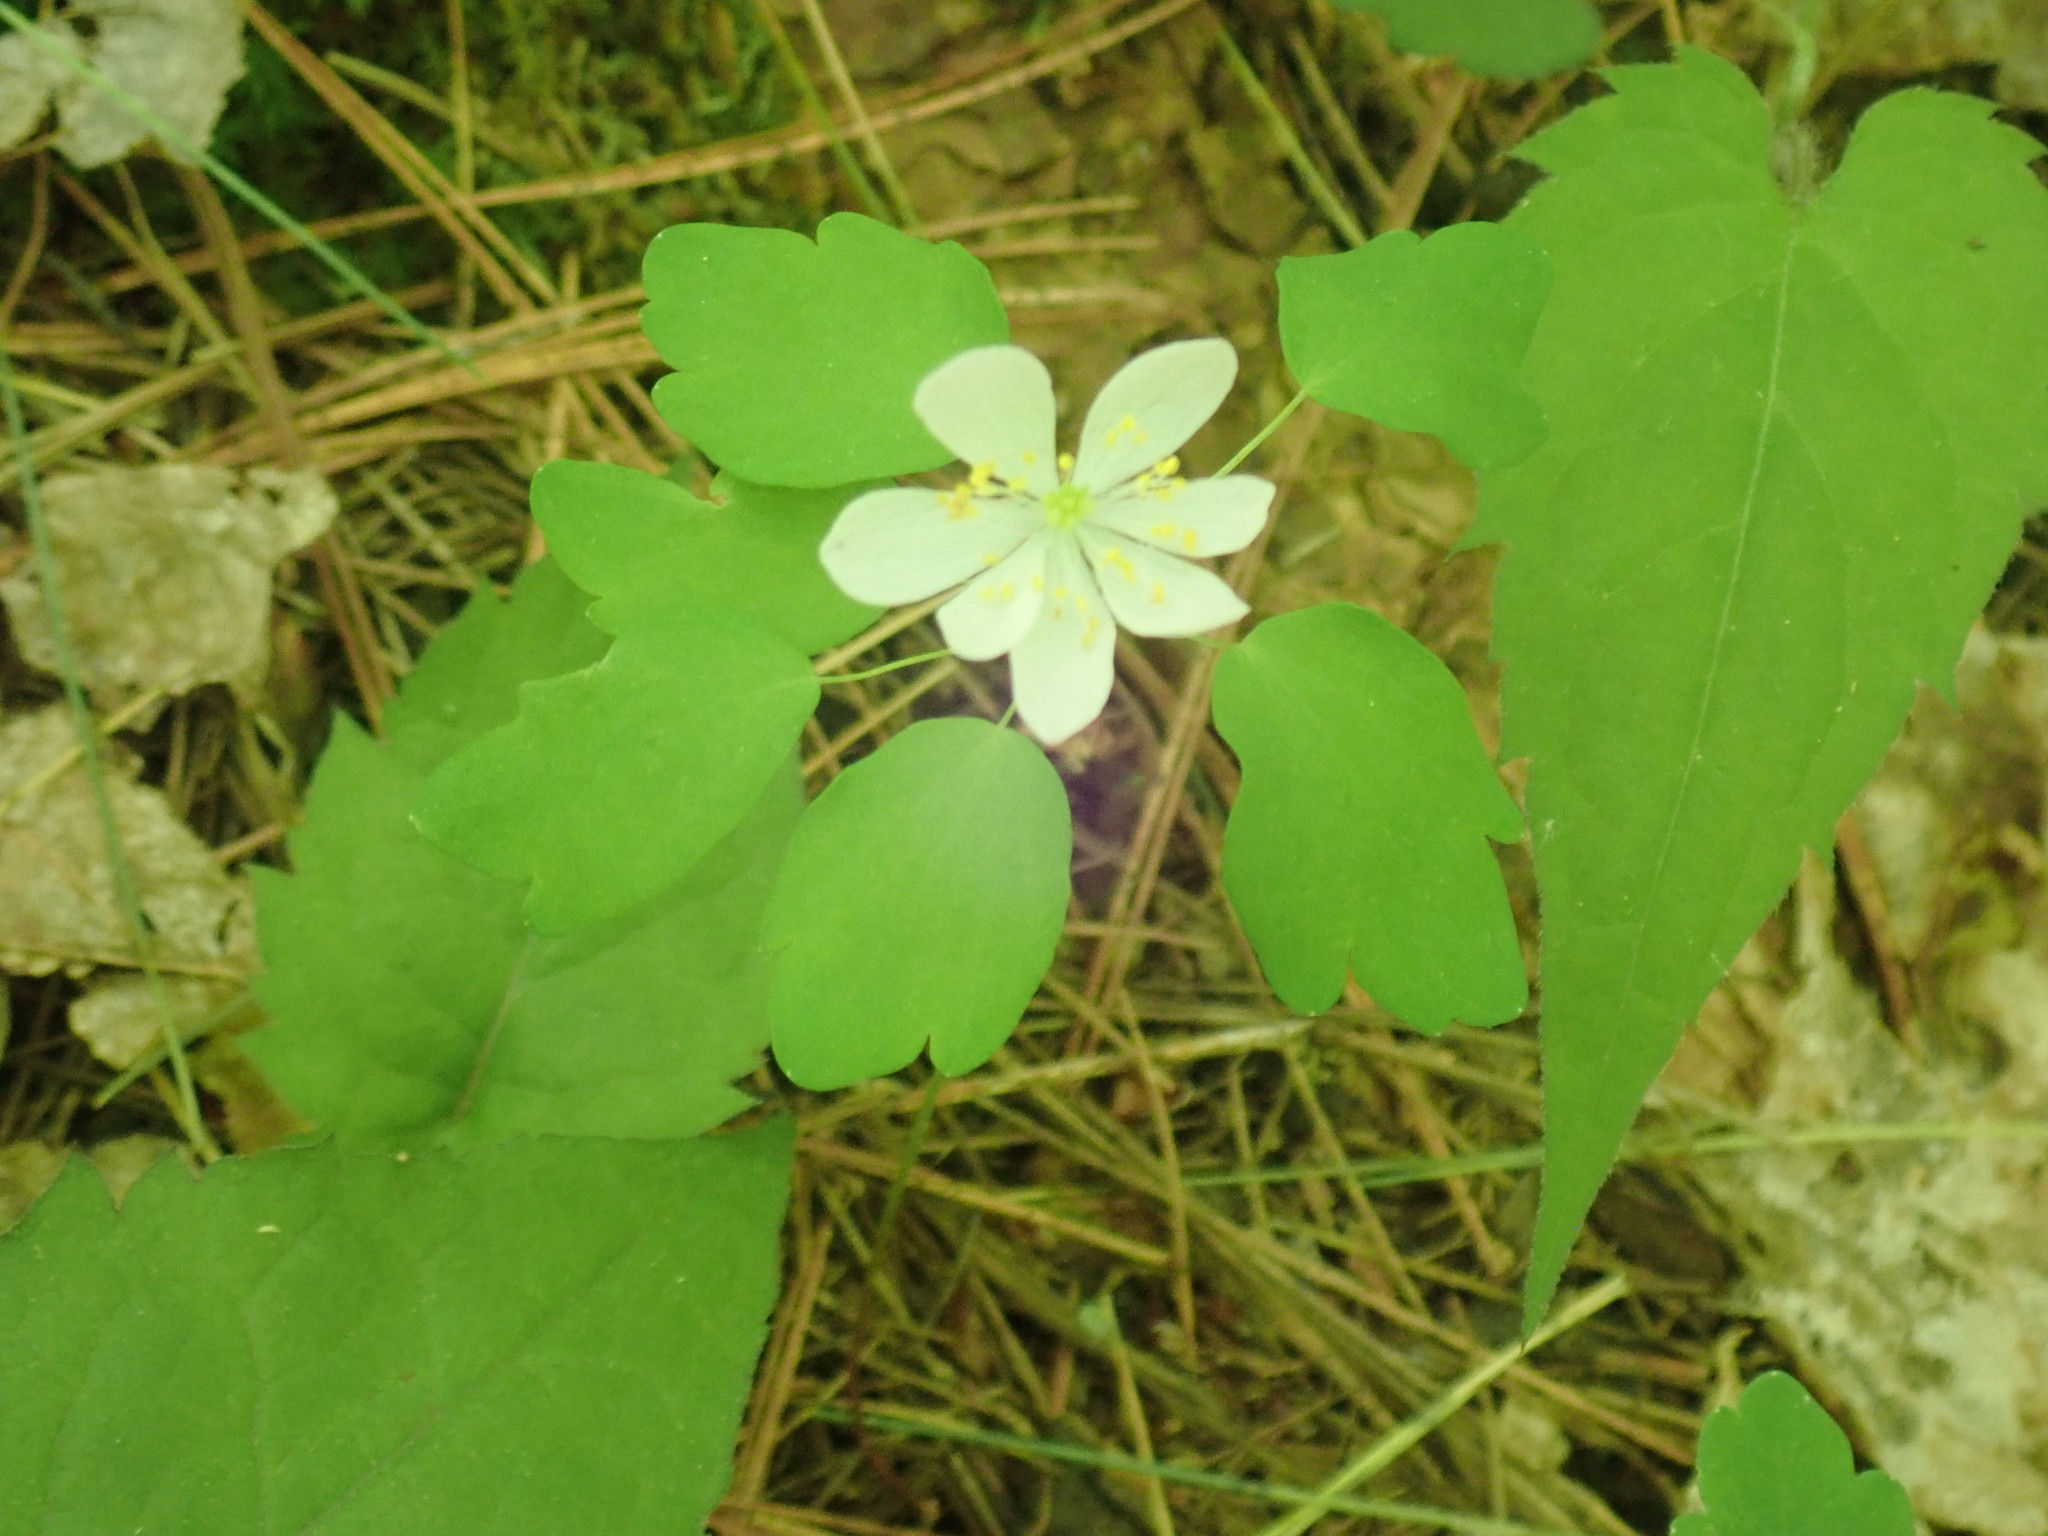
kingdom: Plantae
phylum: Tracheophyta
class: Magnoliopsida
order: Ranunculales
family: Ranunculaceae
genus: Thalictrum
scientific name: Thalictrum thalictroides
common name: Rue-anemone
